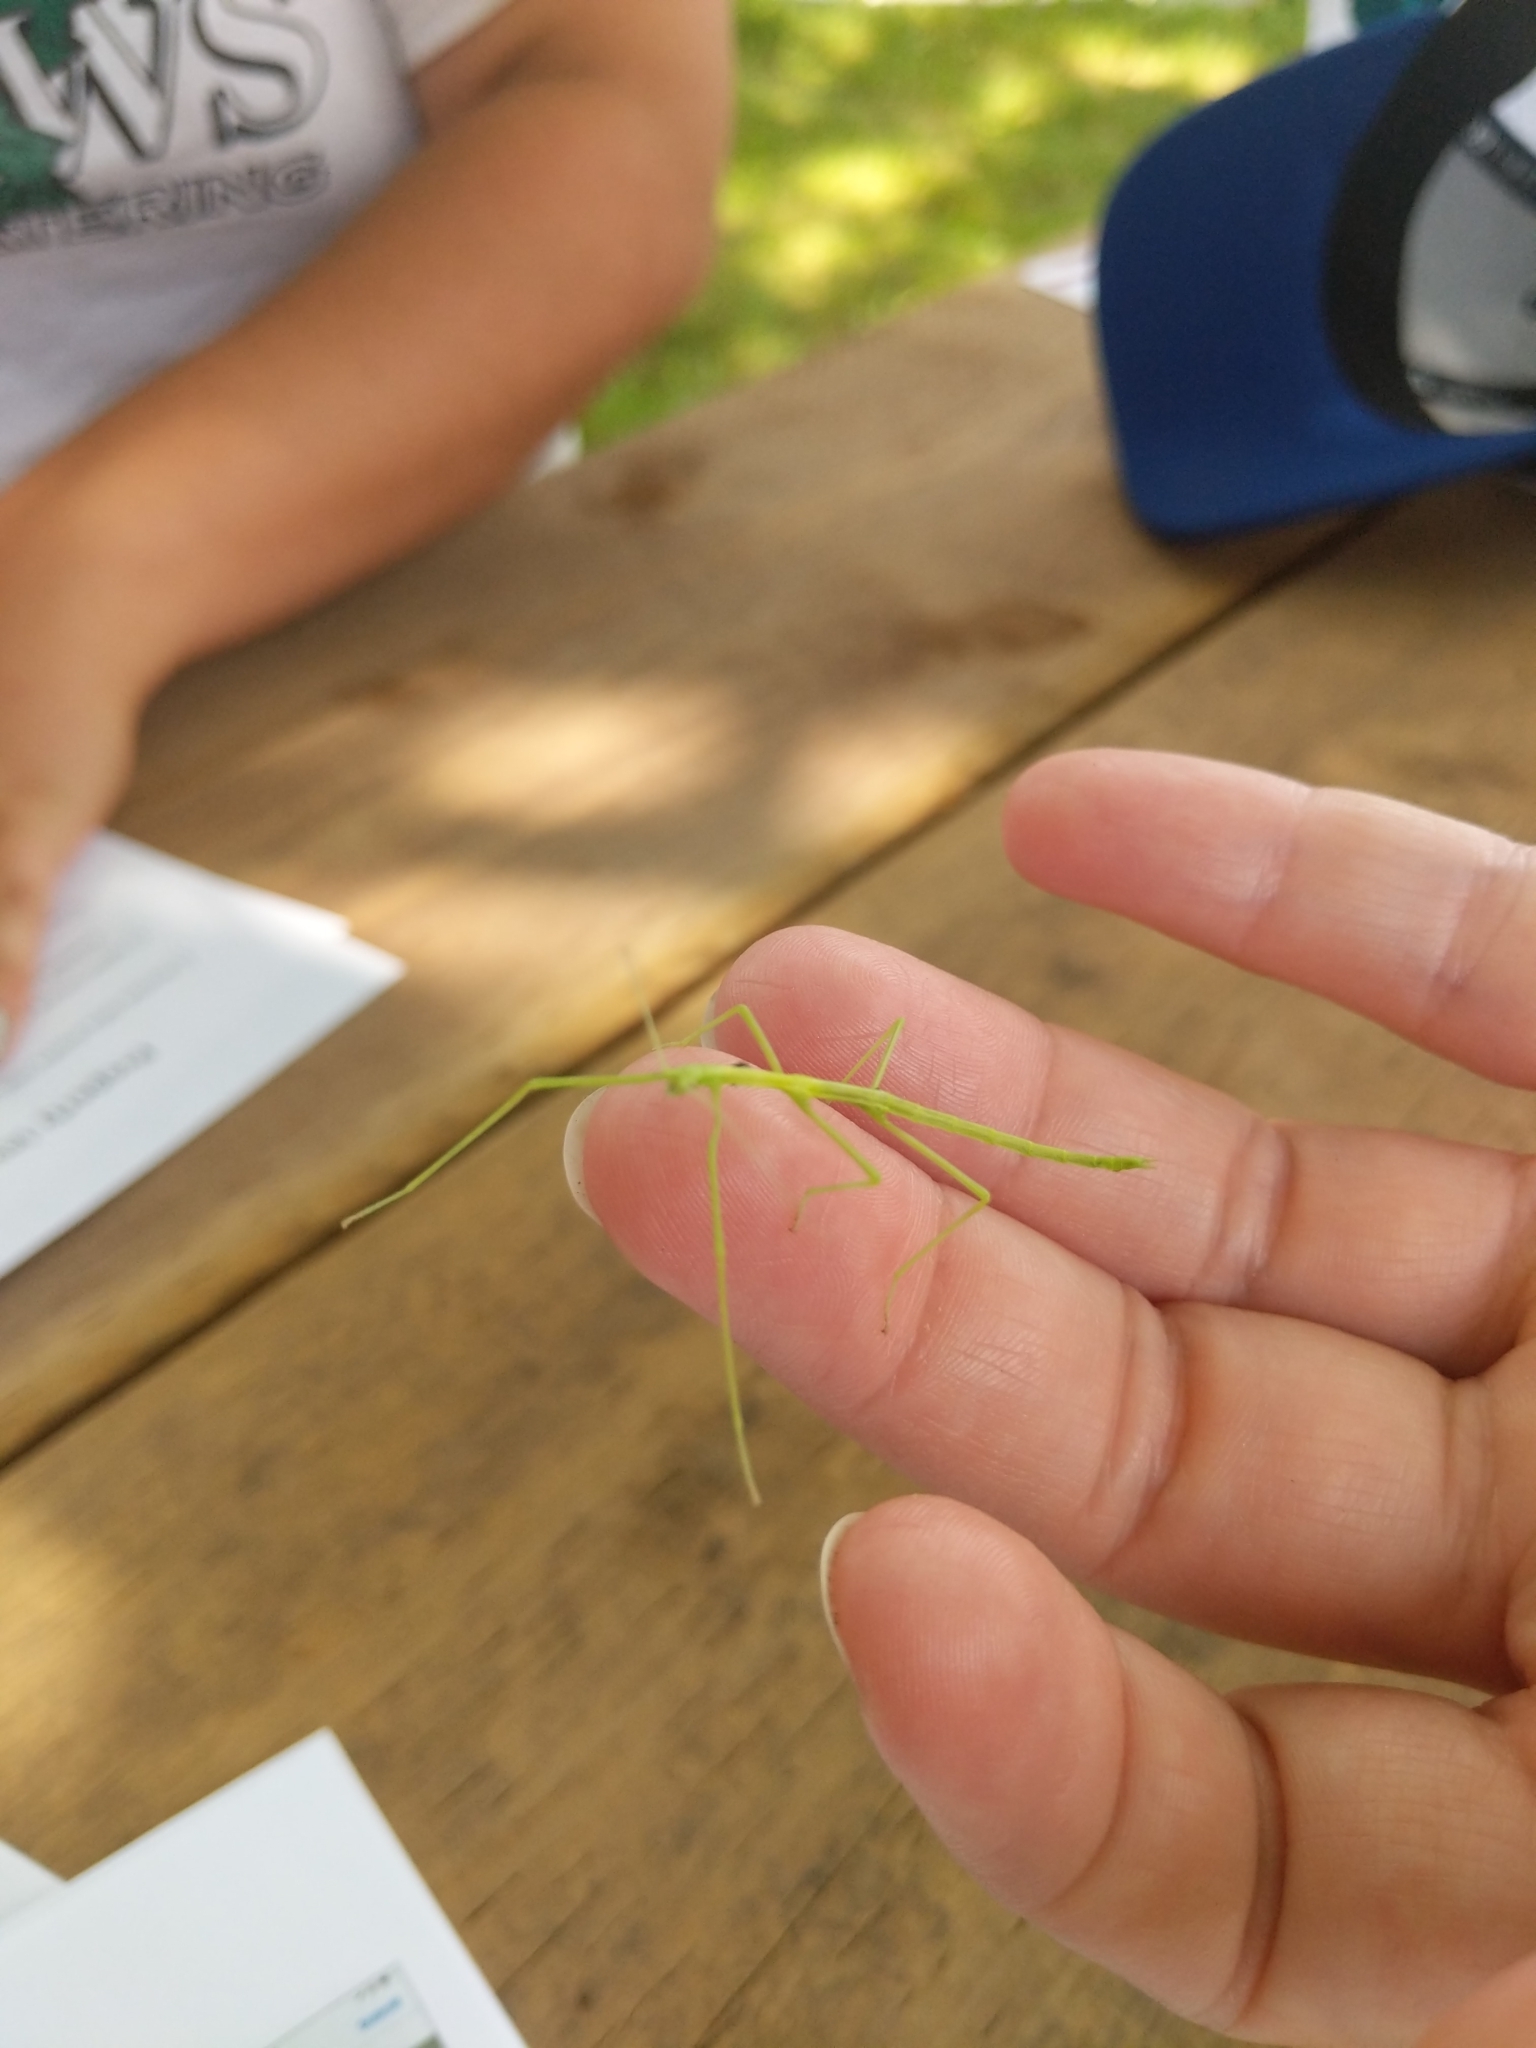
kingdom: Animalia
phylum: Arthropoda
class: Insecta
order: Phasmida
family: Diapheromeridae
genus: Diapheromera
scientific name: Diapheromera femorata
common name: Common american walkingstick
